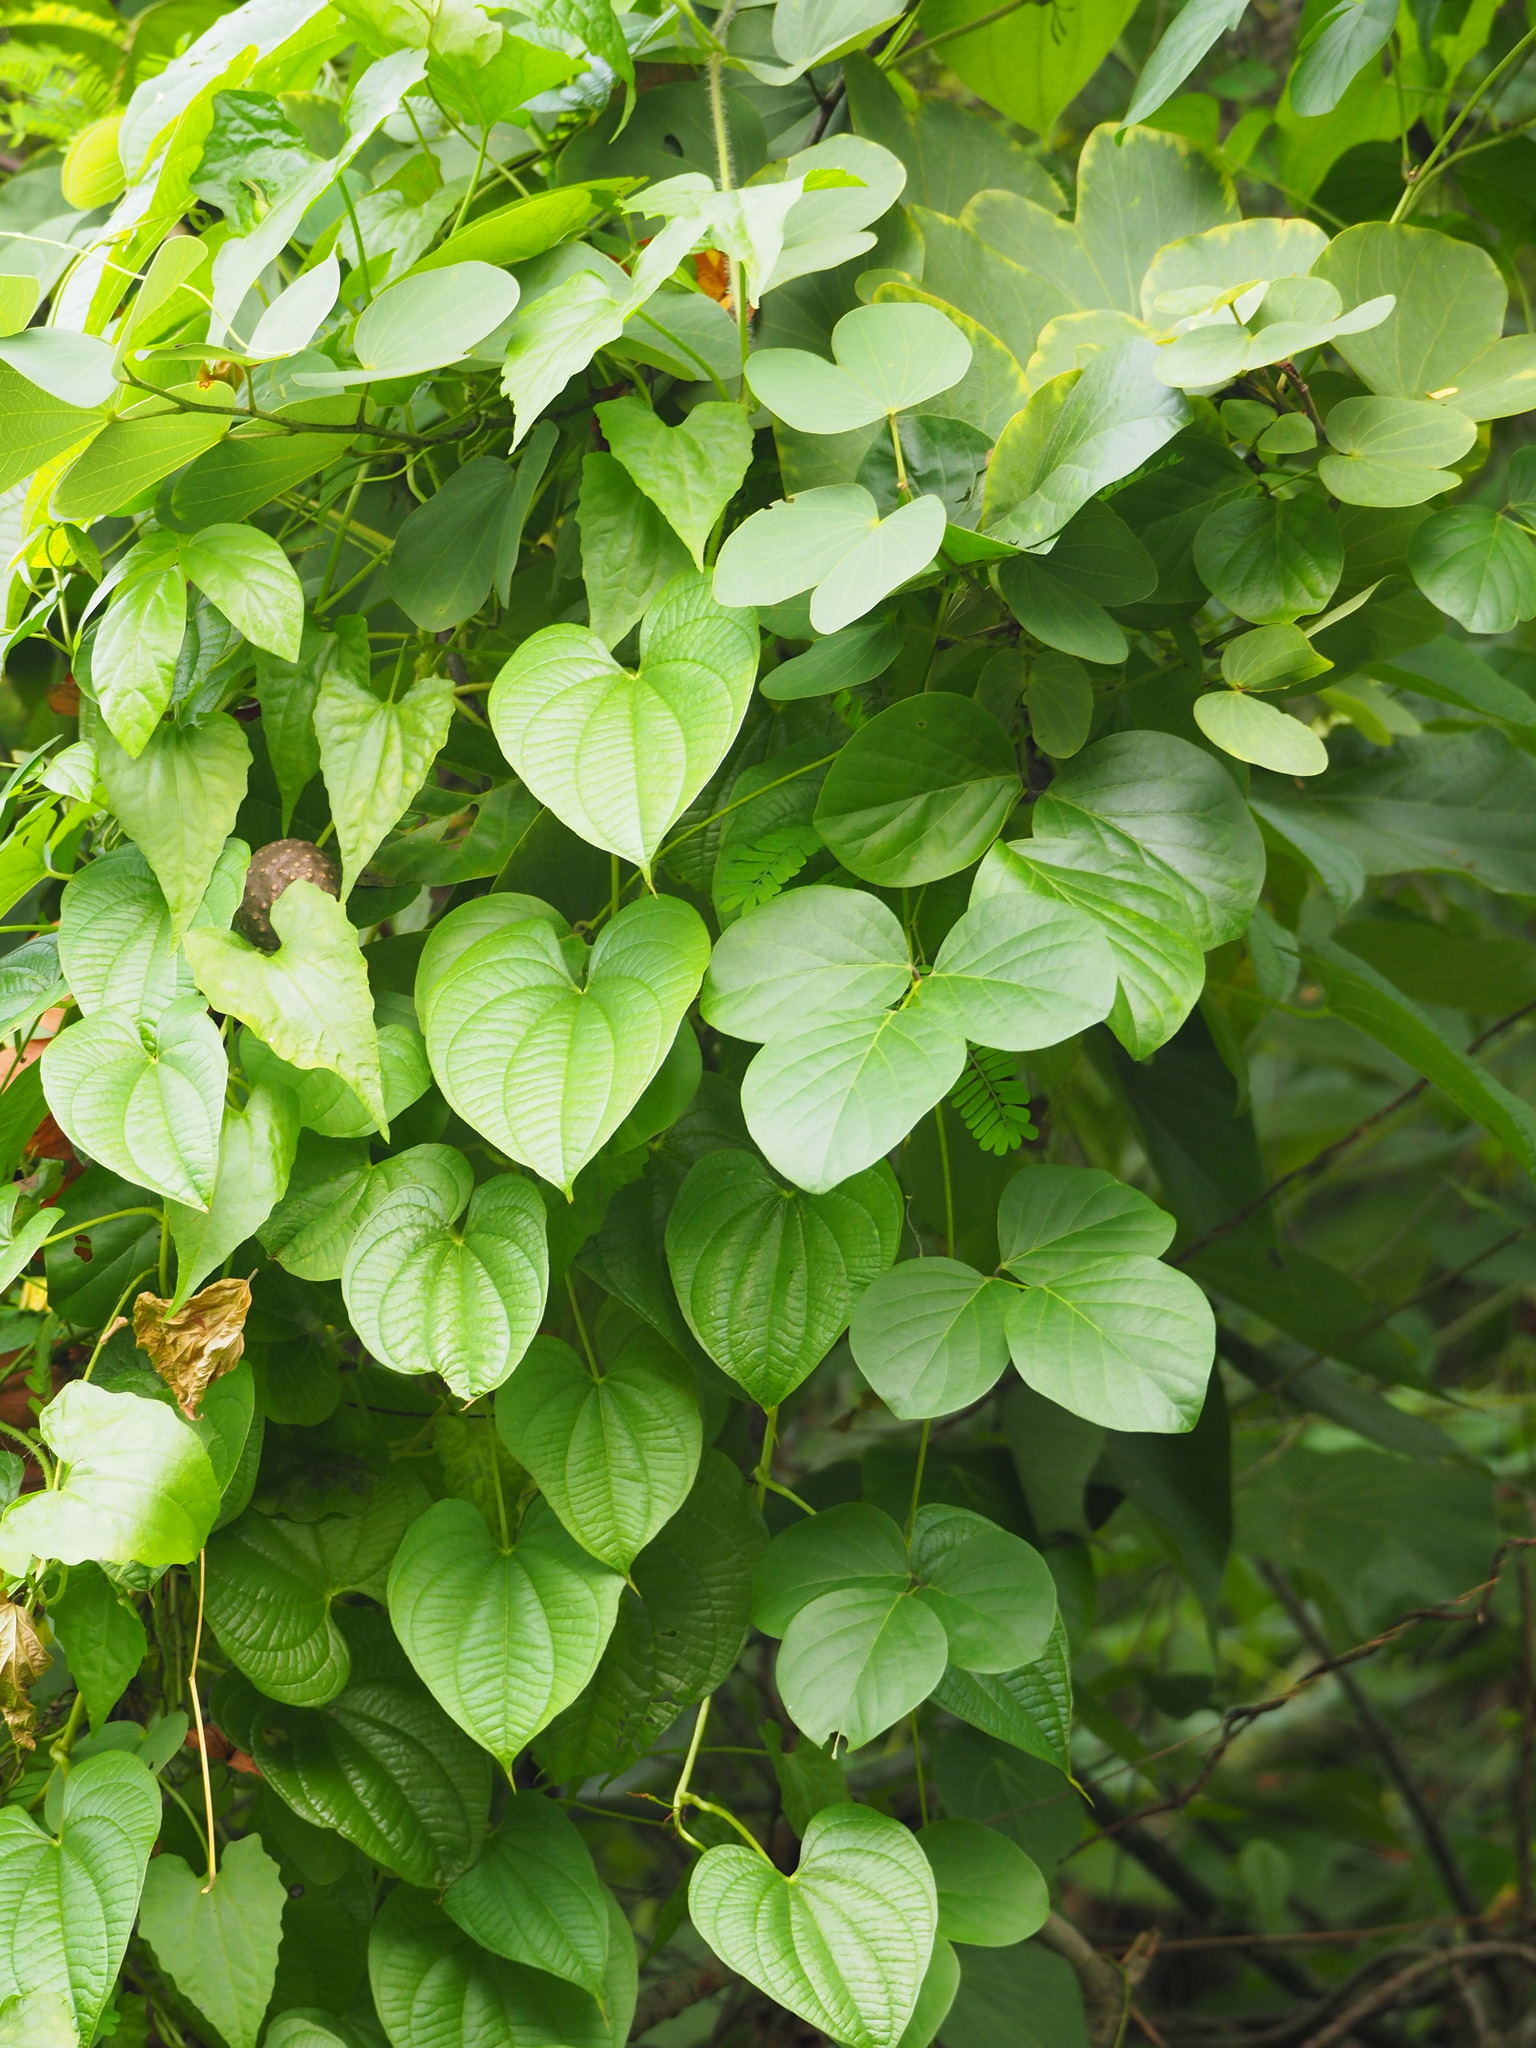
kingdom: Plantae
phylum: Tracheophyta
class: Liliopsida
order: Dioscoreales
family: Dioscoreaceae
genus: Dioscorea
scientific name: Dioscorea bulbifera
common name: Air yam
